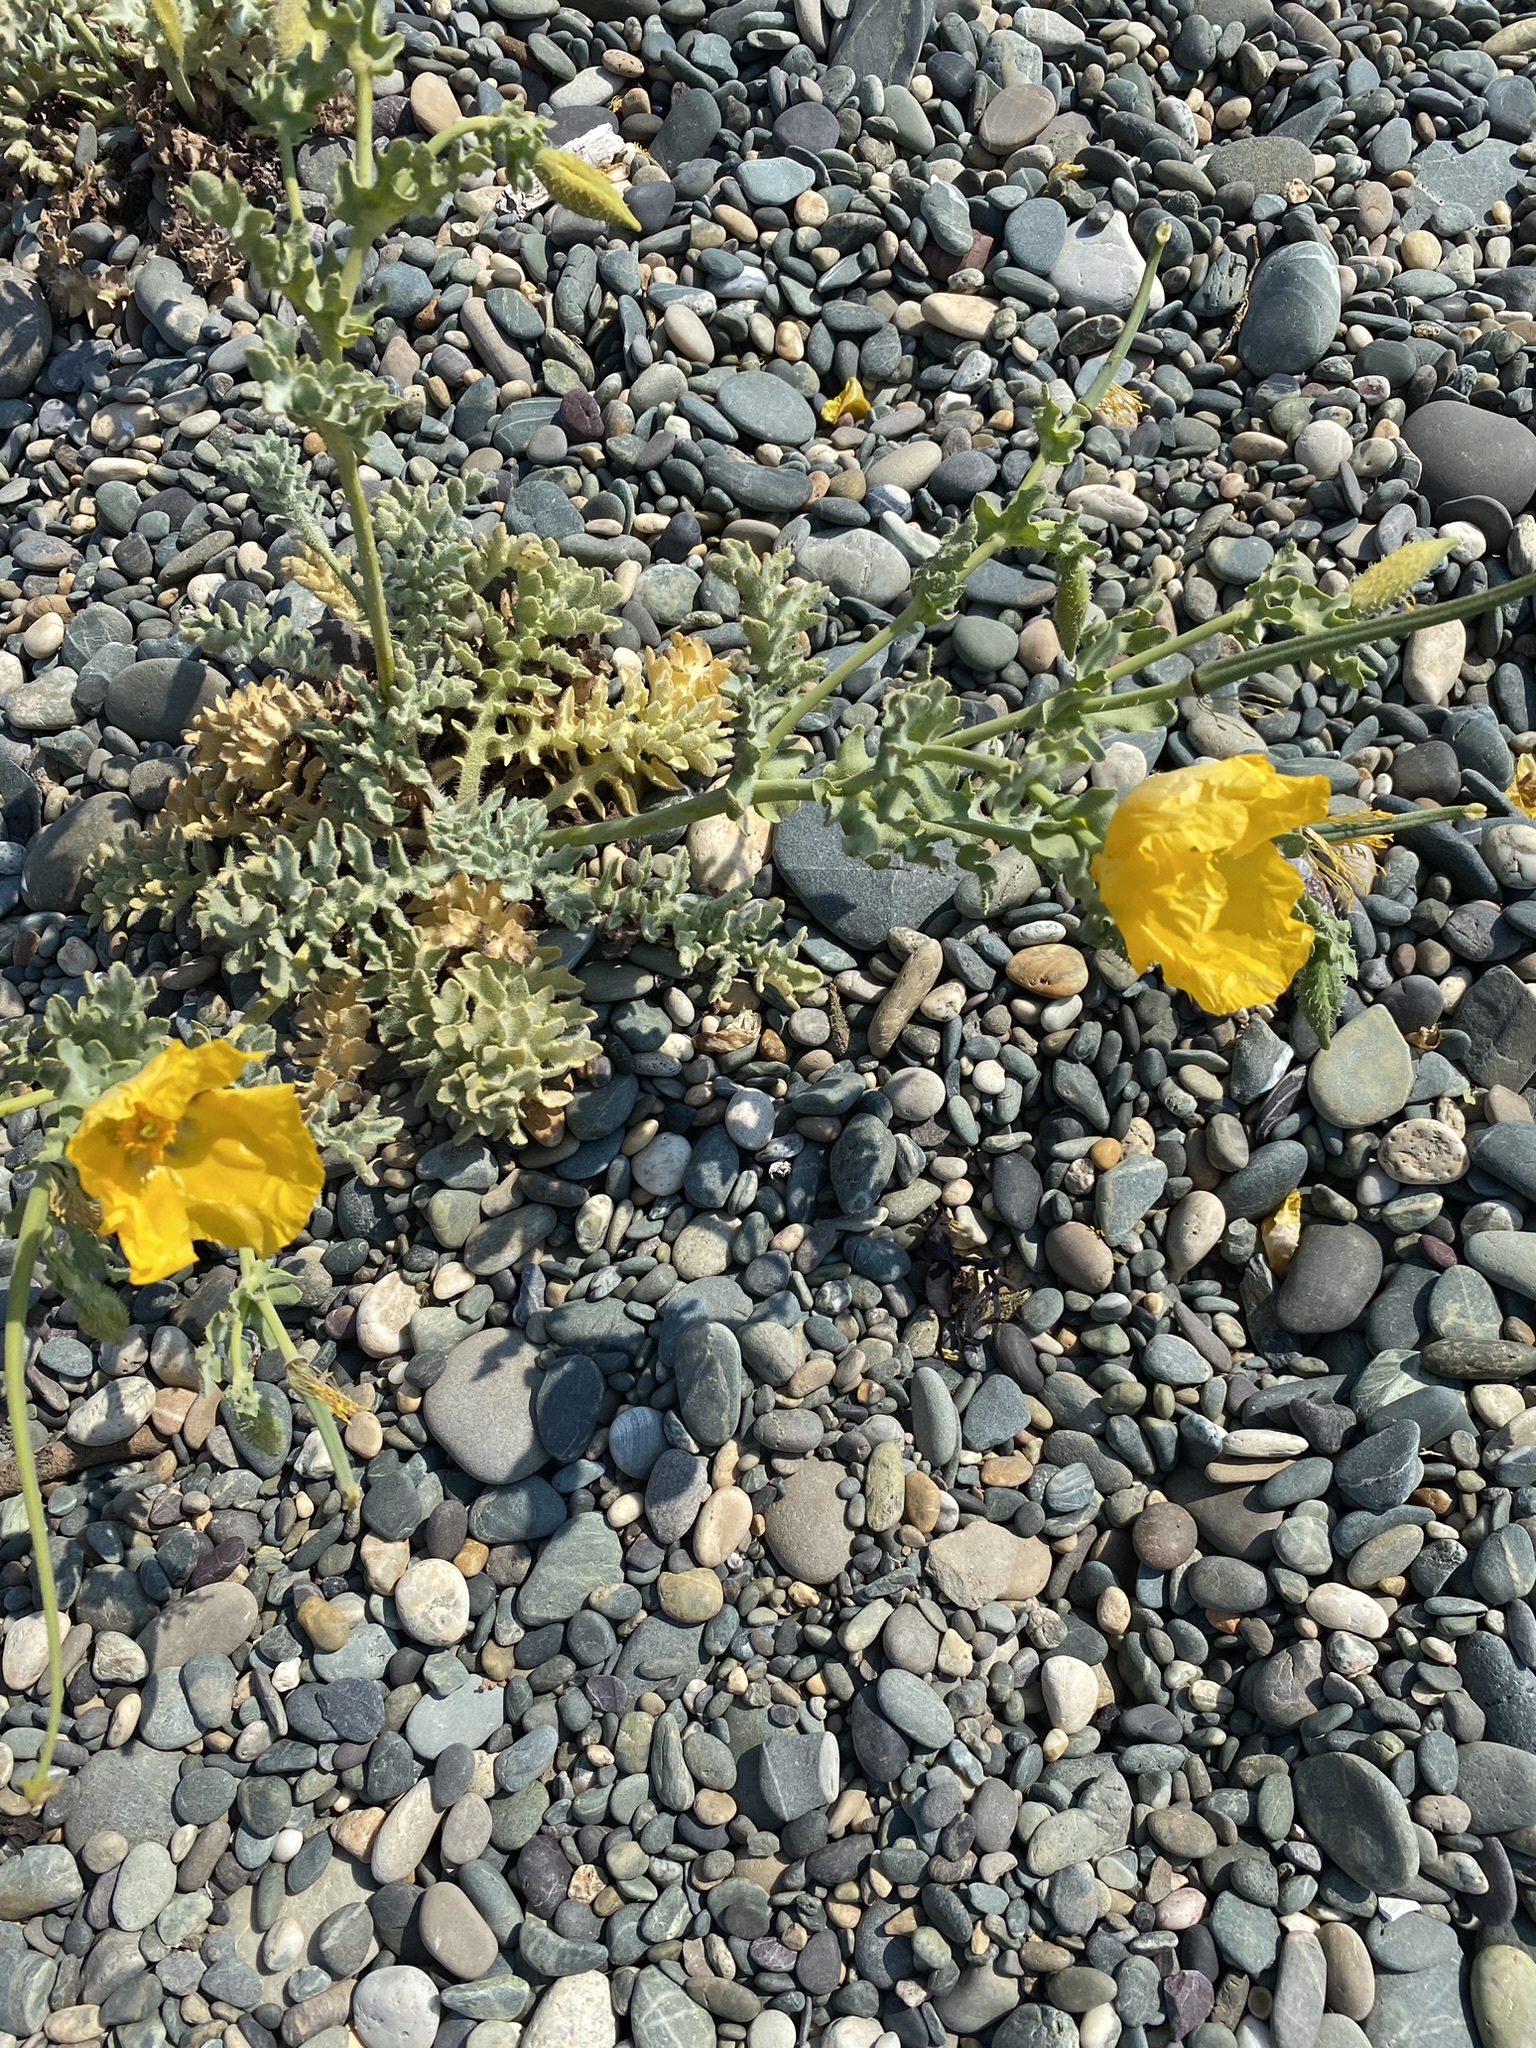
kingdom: Plantae
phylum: Tracheophyta
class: Magnoliopsida
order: Ranunculales
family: Papaveraceae
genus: Glaucium
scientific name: Glaucium flavum
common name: Yellow horned-poppy
